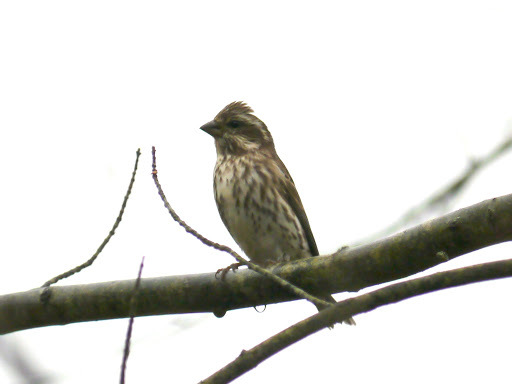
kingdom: Animalia
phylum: Chordata
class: Aves
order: Passeriformes
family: Fringillidae
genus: Haemorhous
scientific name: Haemorhous purpureus
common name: Purple finch
